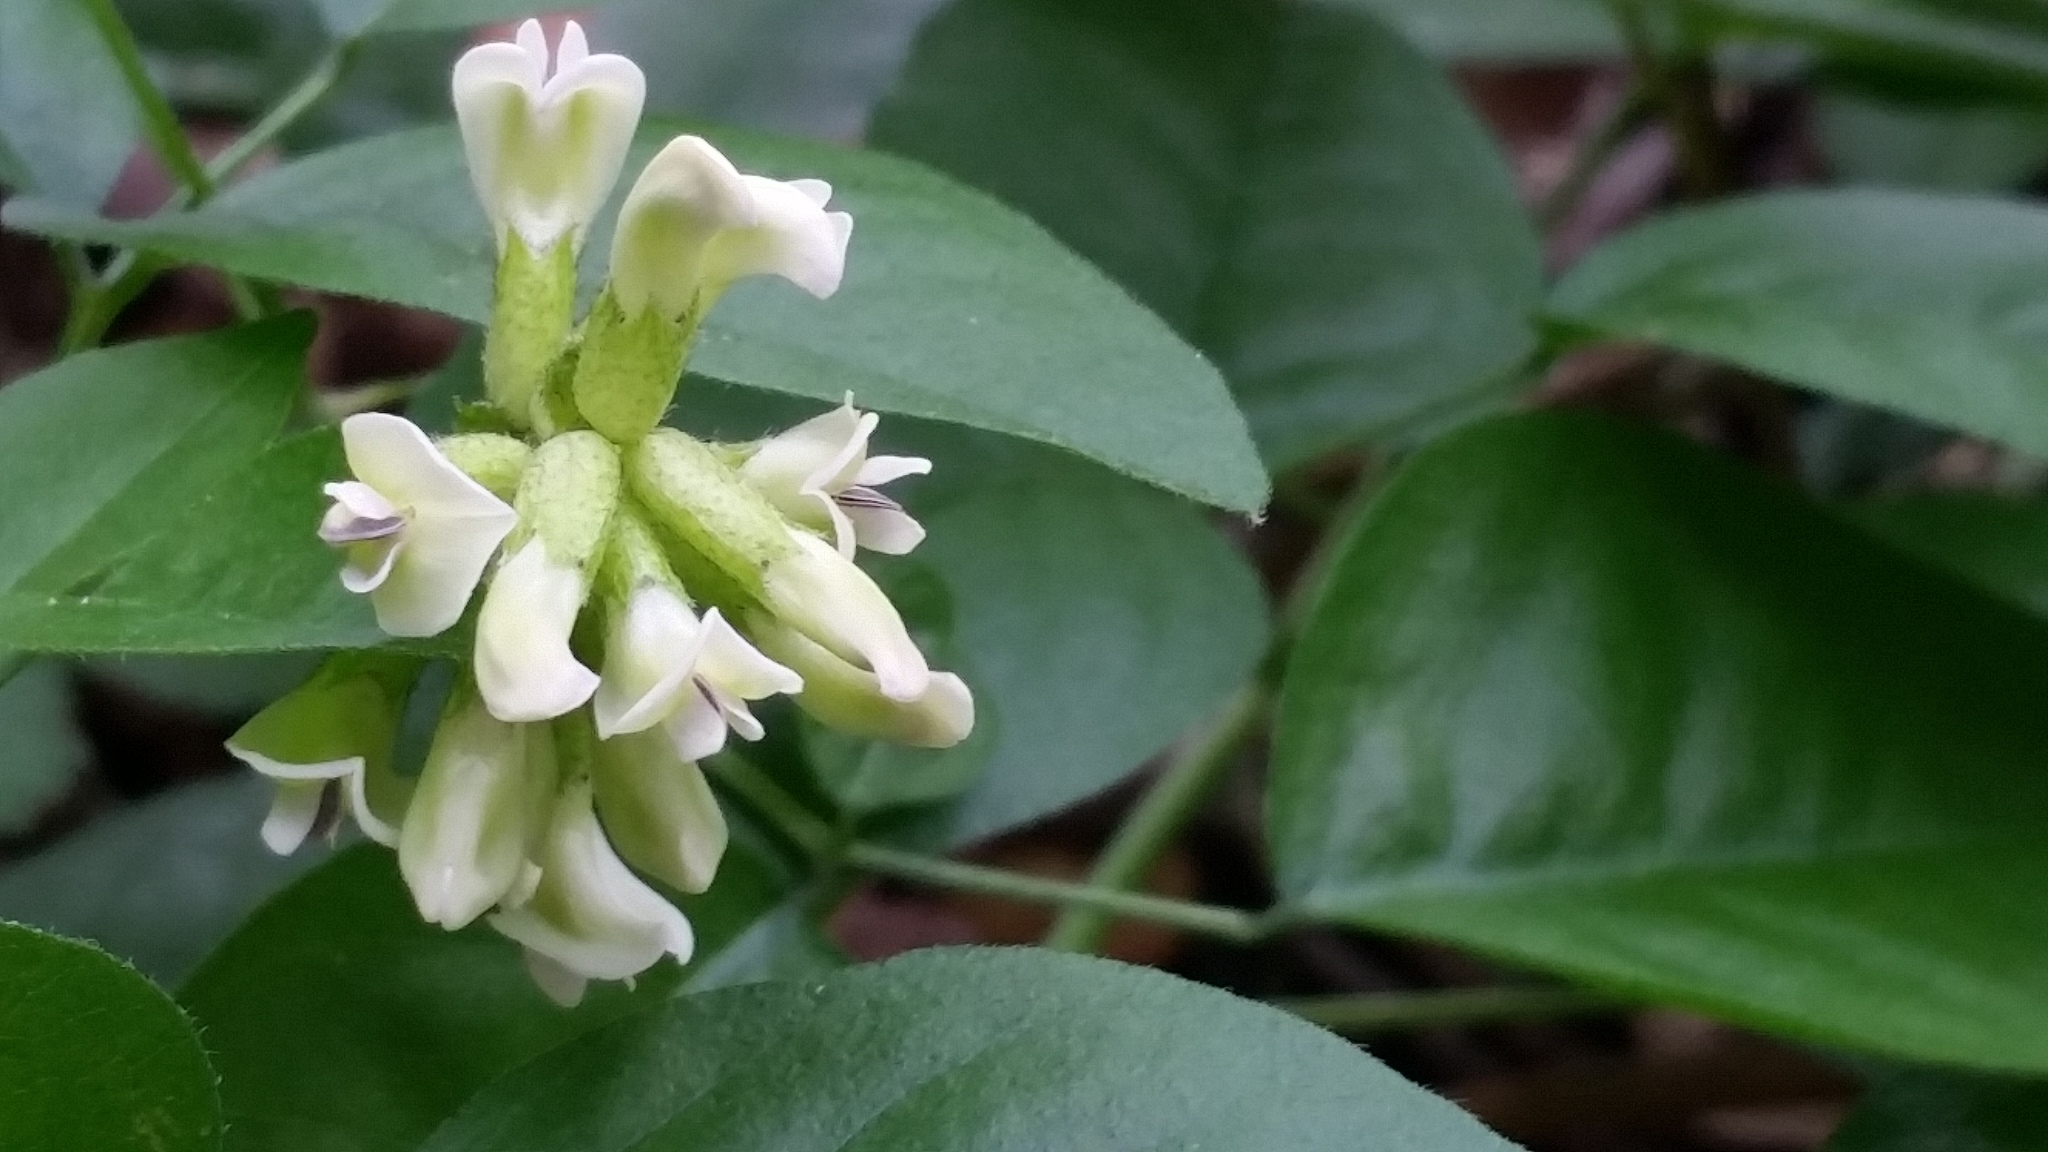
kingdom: Plantae
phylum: Tracheophyta
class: Magnoliopsida
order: Fabales
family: Fabaceae
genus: Rupertia
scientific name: Rupertia physodes
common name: California-tea
